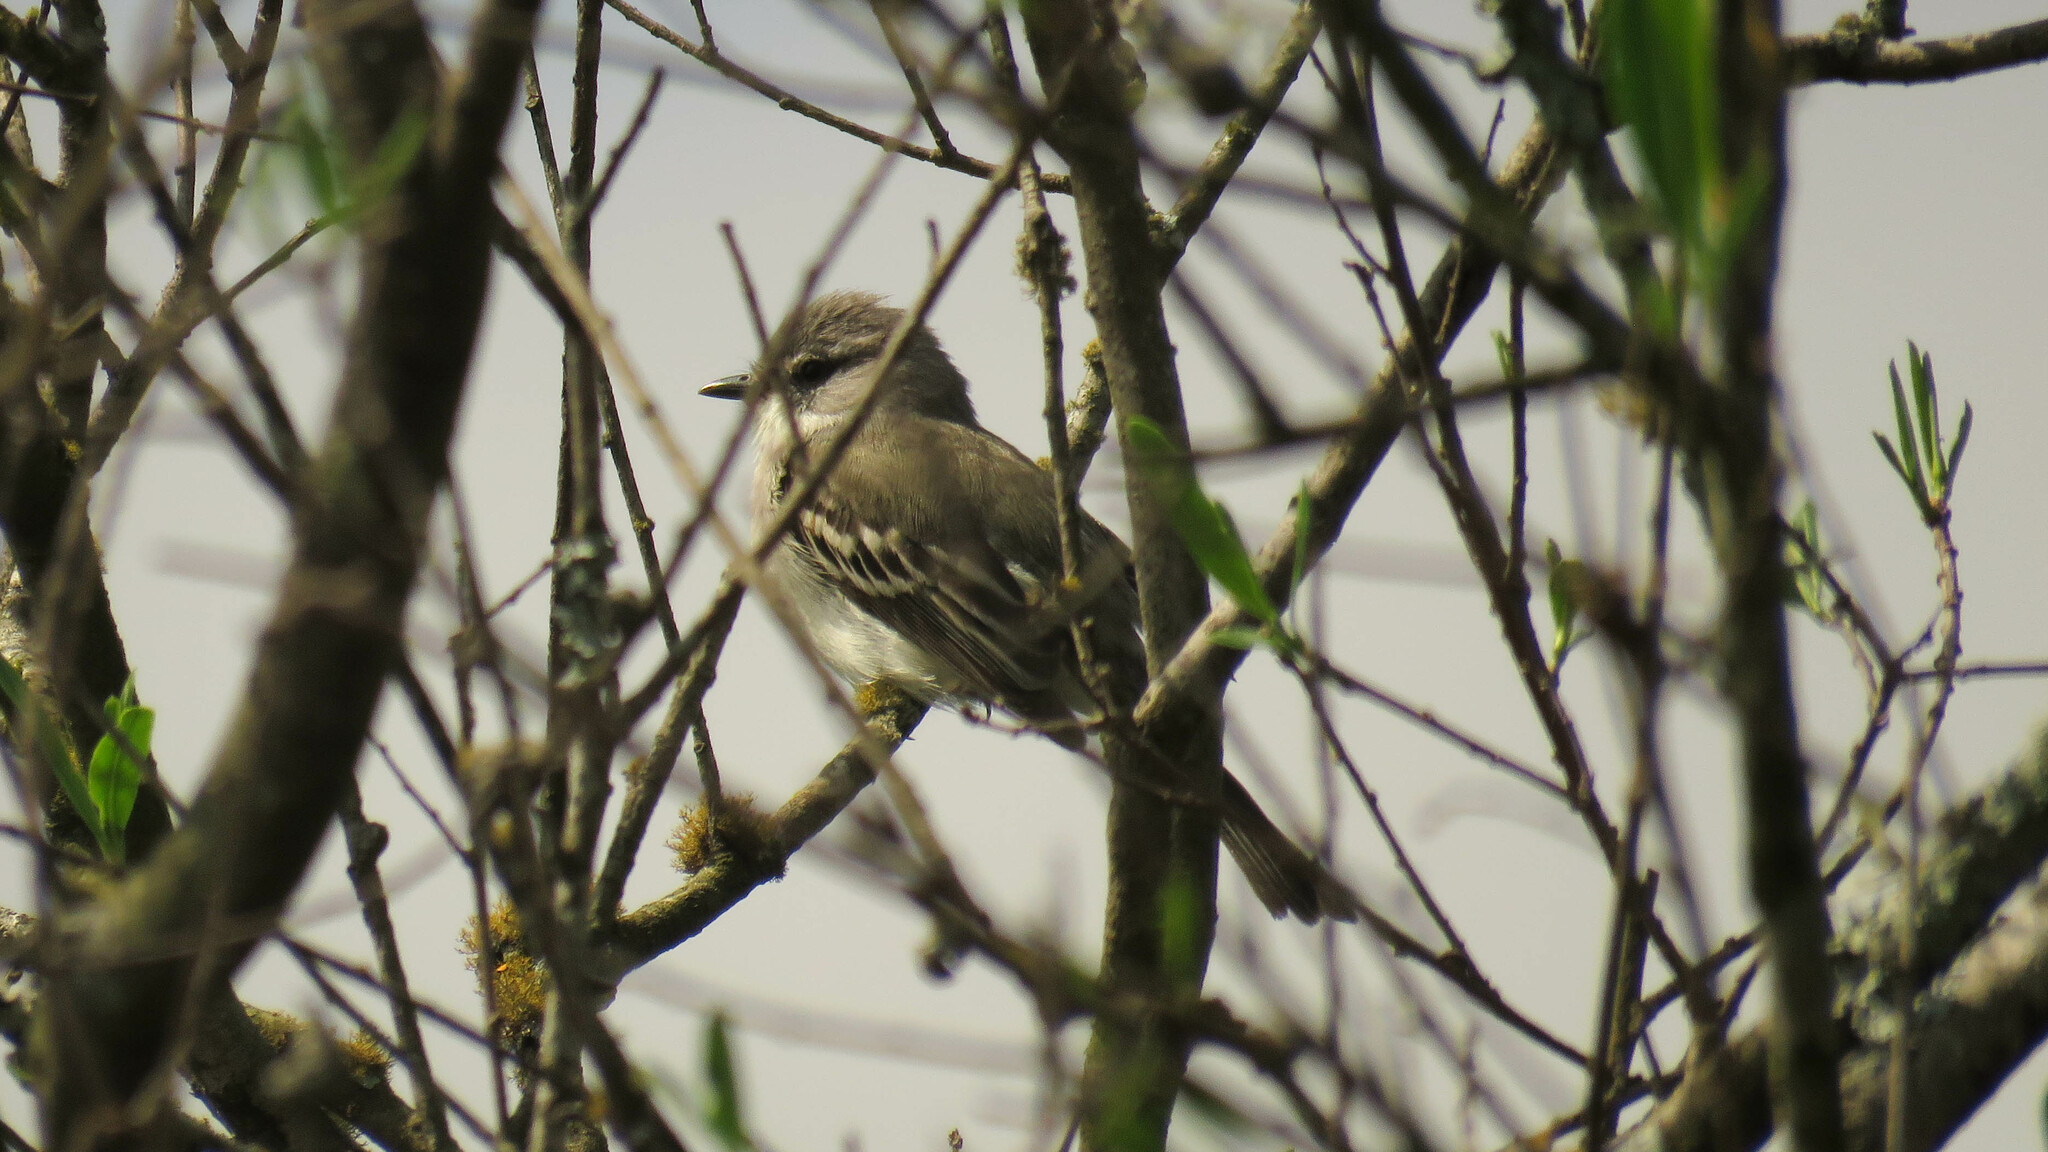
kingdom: Animalia
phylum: Chordata
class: Aves
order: Passeriformes
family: Tyrannidae
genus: Suiriri
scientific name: Suiriri suiriri
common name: Suiriri flycatcher
